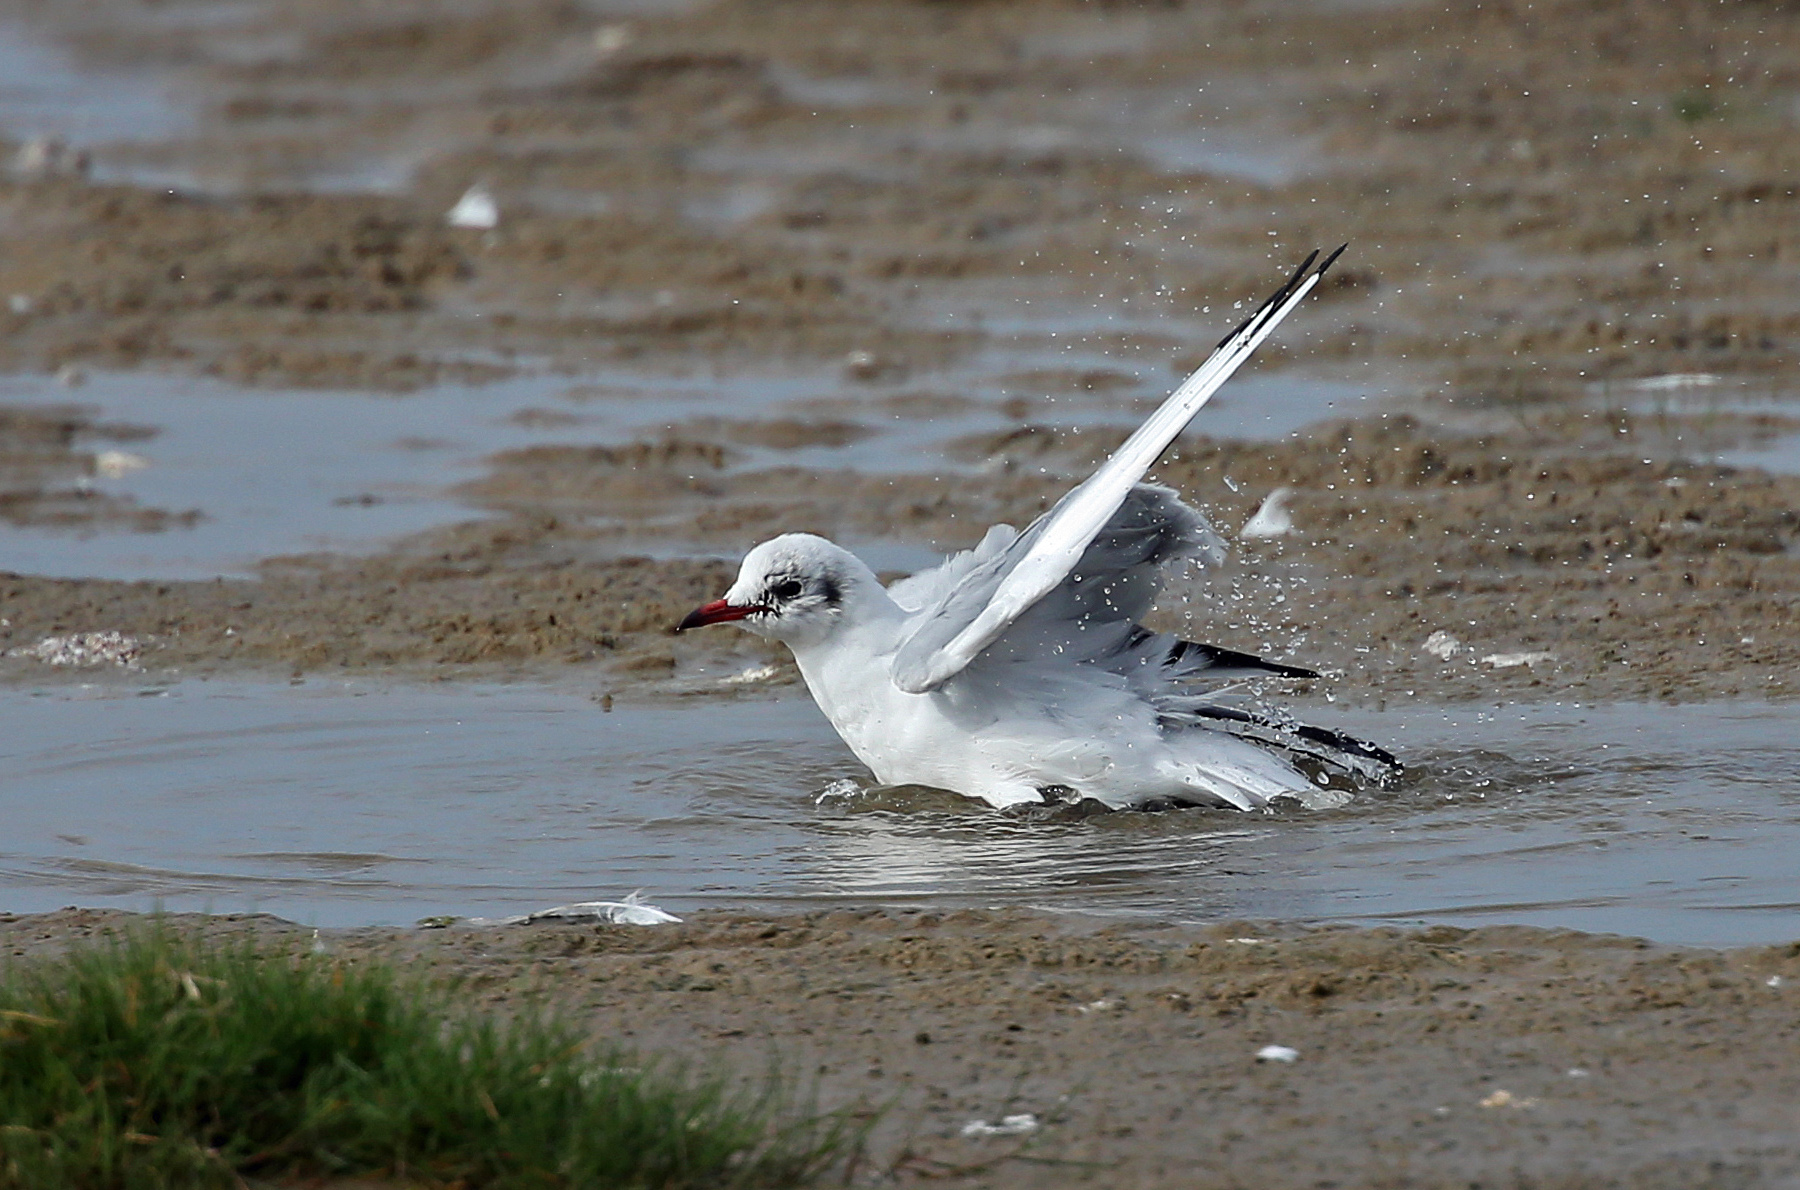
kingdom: Animalia
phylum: Chordata
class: Aves
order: Charadriiformes
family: Laridae
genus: Chroicocephalus
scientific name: Chroicocephalus ridibundus
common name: Black-headed gull
